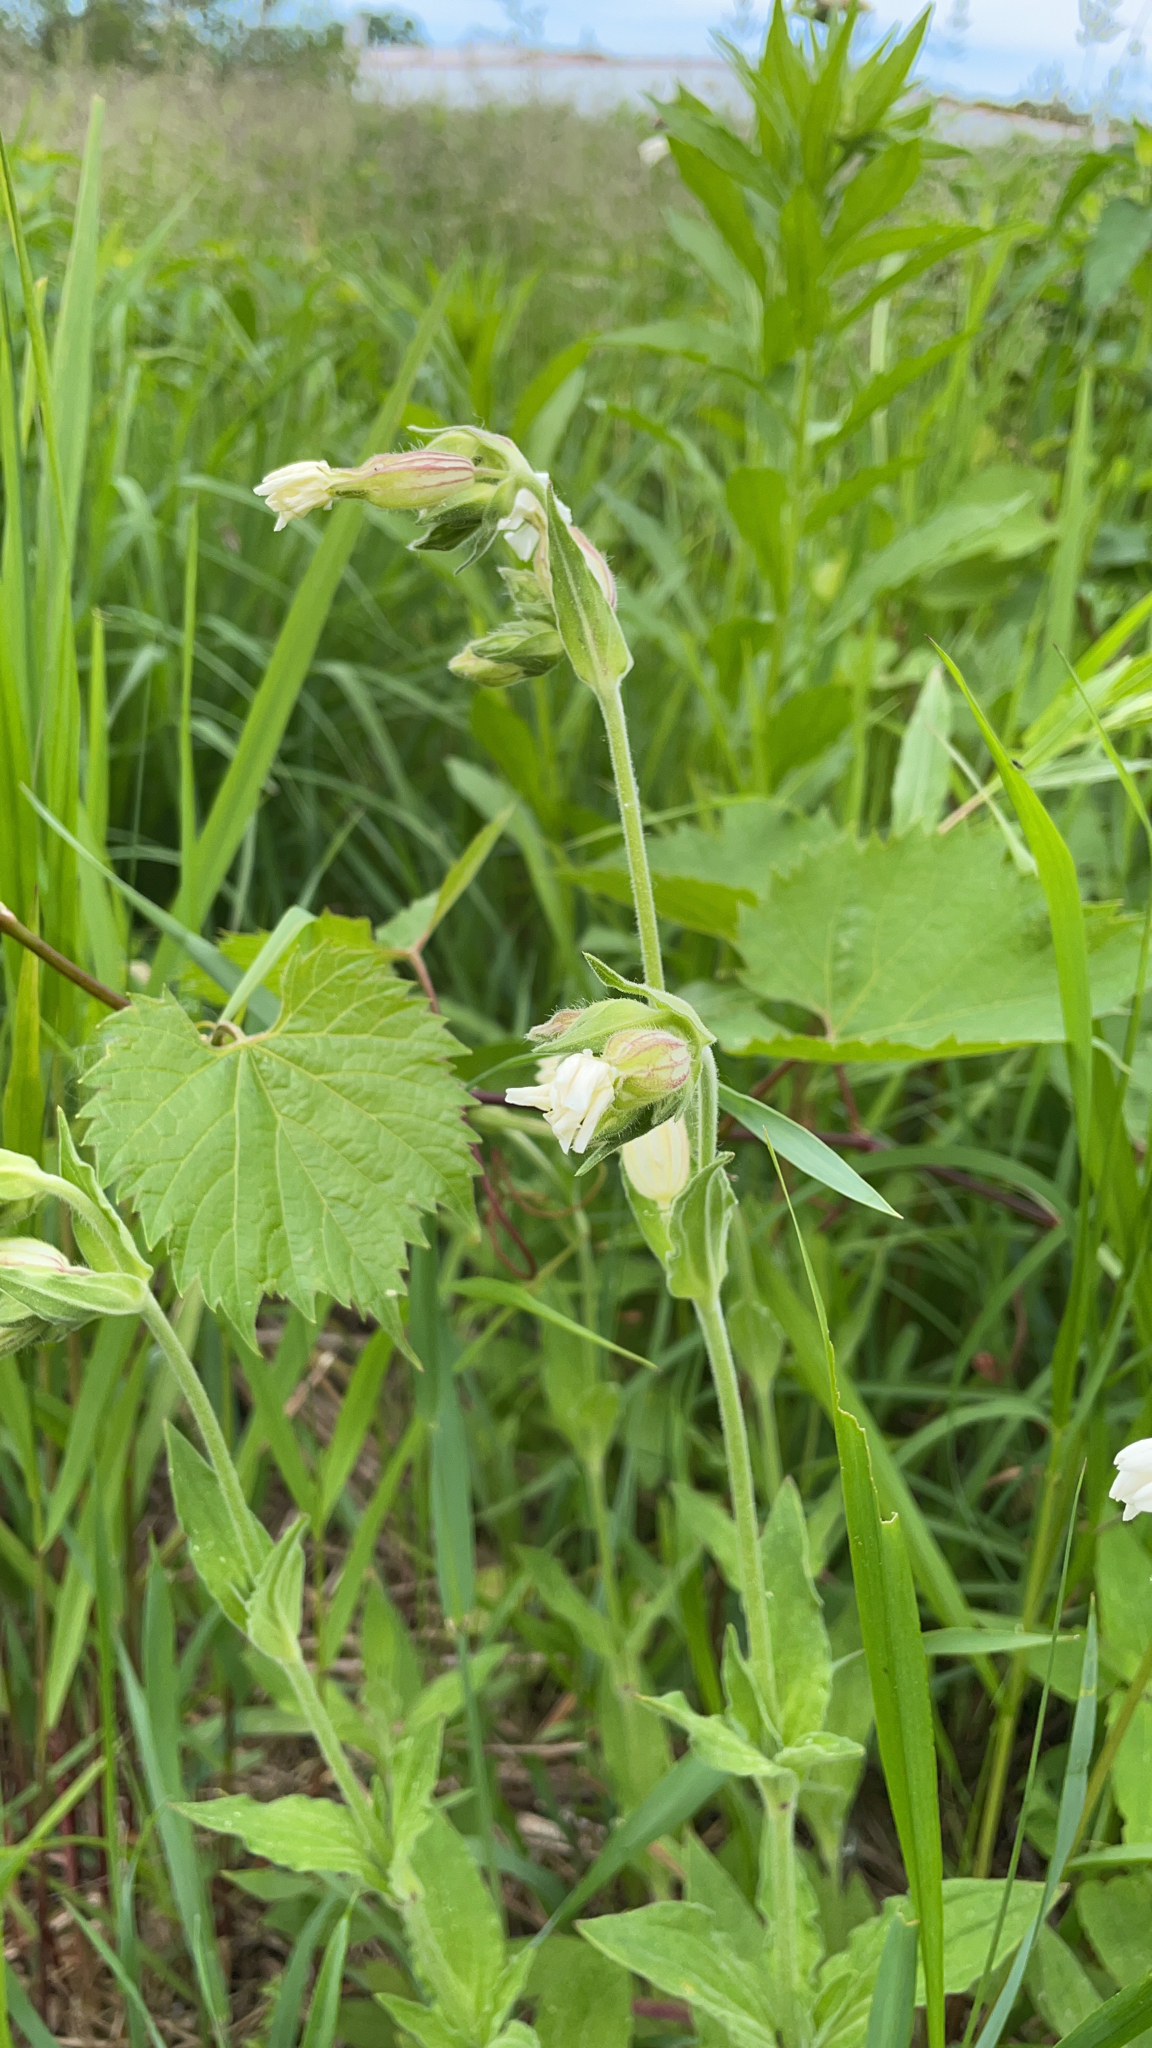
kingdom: Plantae
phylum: Tracheophyta
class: Magnoliopsida
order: Caryophyllales
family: Caryophyllaceae
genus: Silene
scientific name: Silene latifolia
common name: White campion
